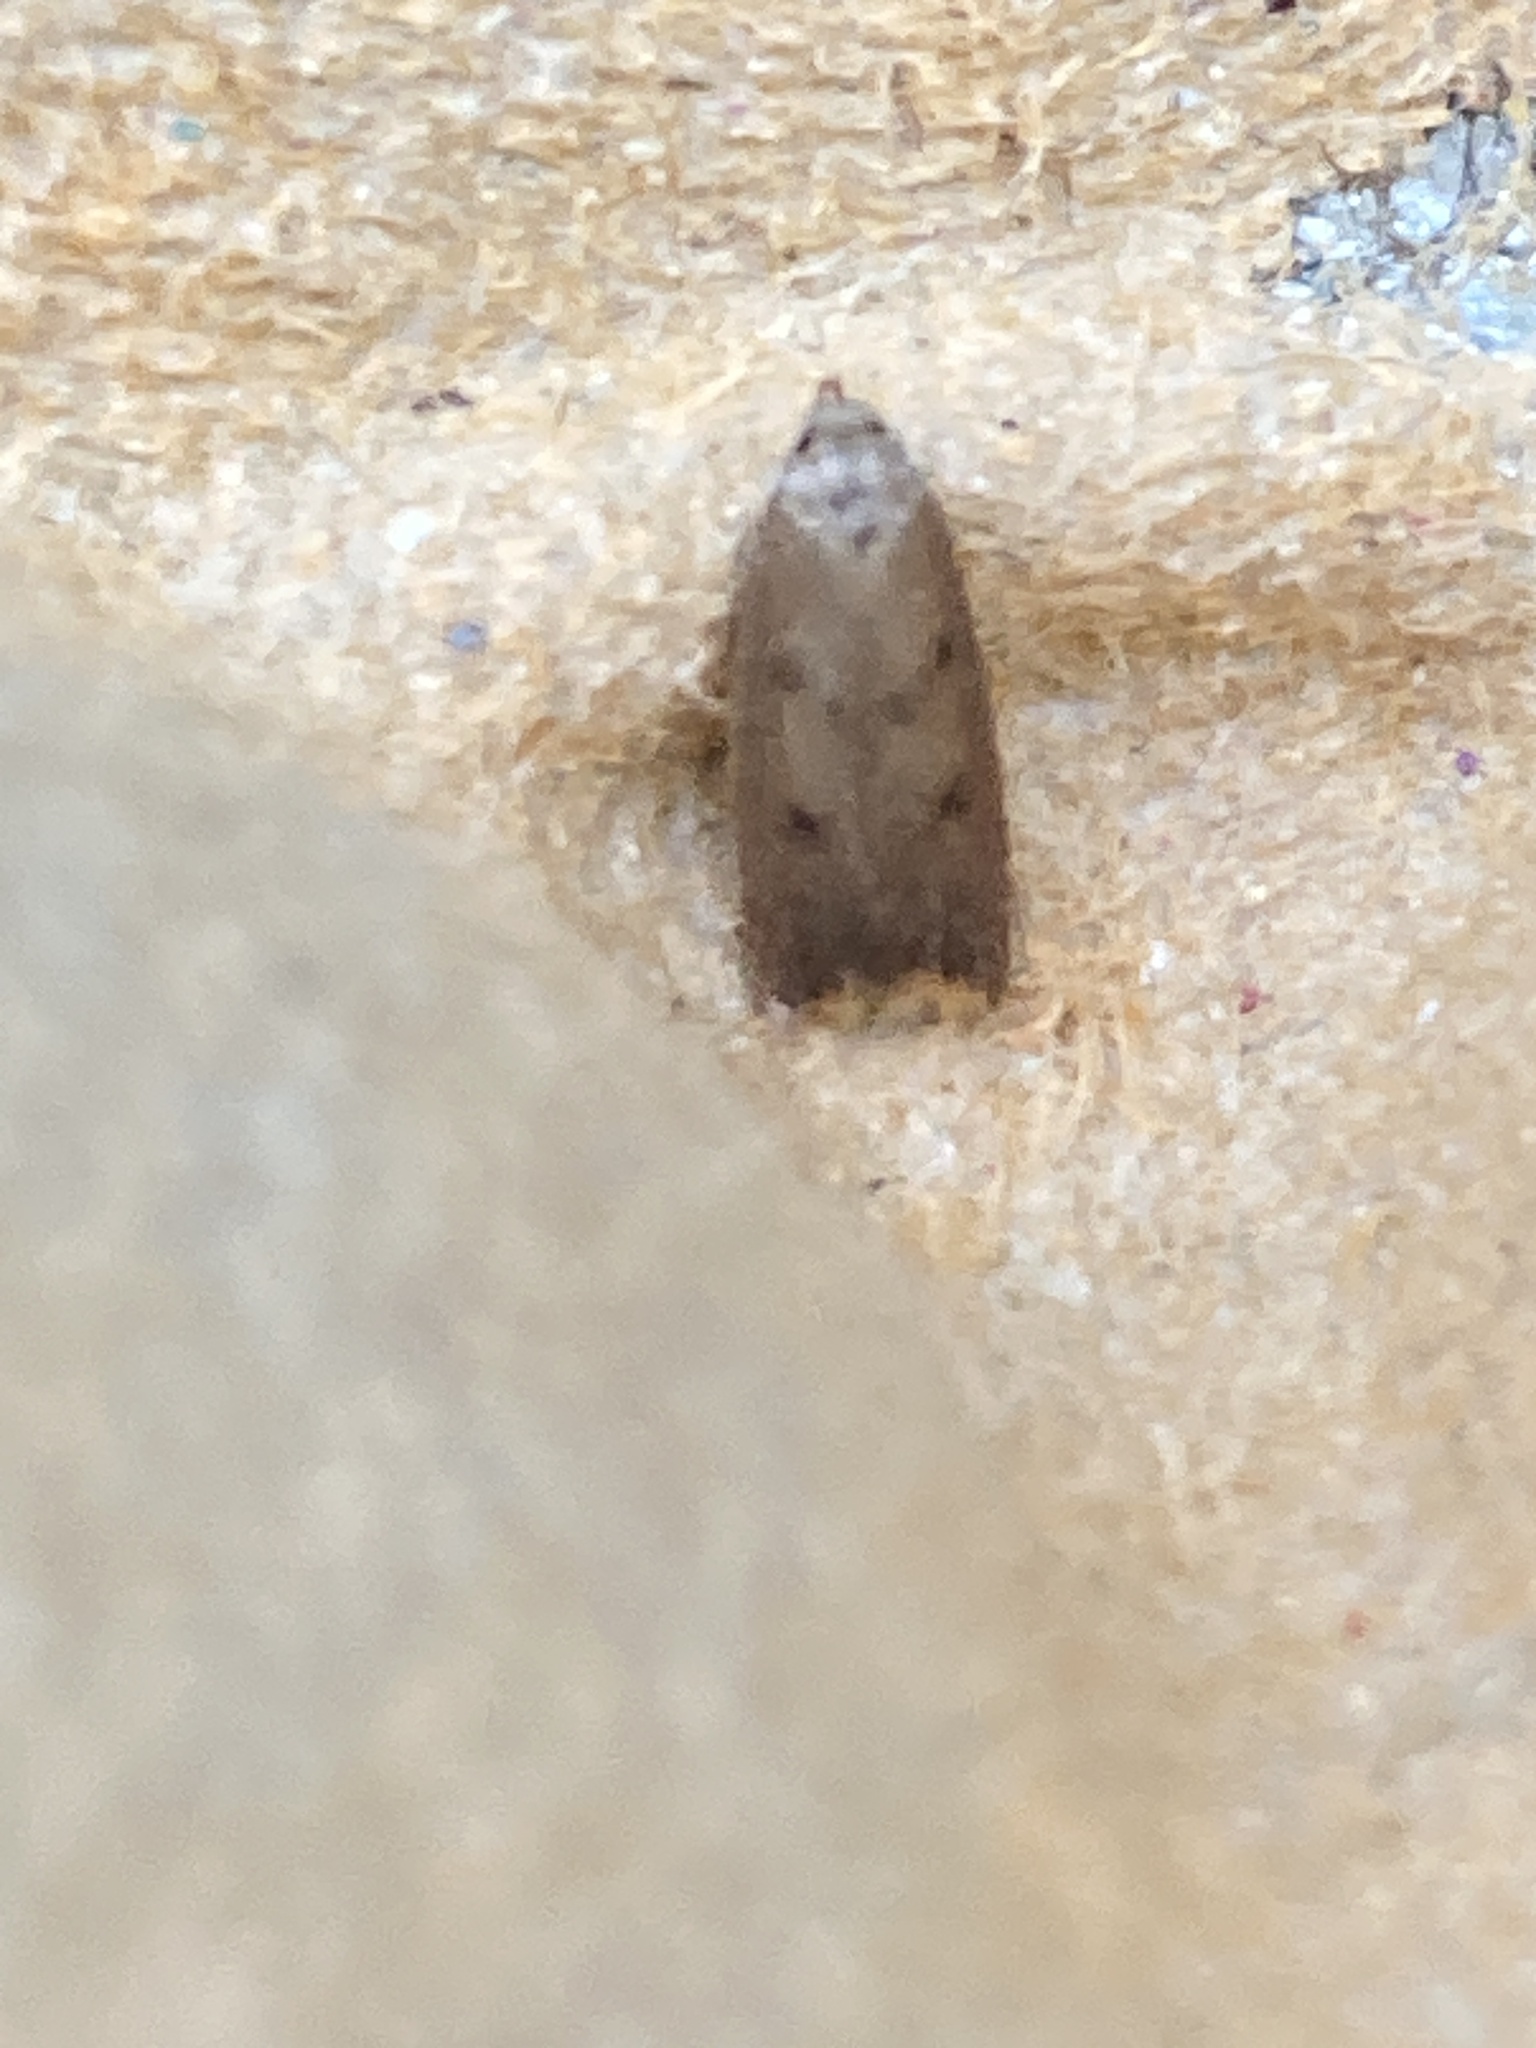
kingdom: Animalia
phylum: Arthropoda
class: Insecta
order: Lepidoptera
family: Oecophoridae
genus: Tachystola
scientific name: Tachystola acroxantha
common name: Ruddy streak
